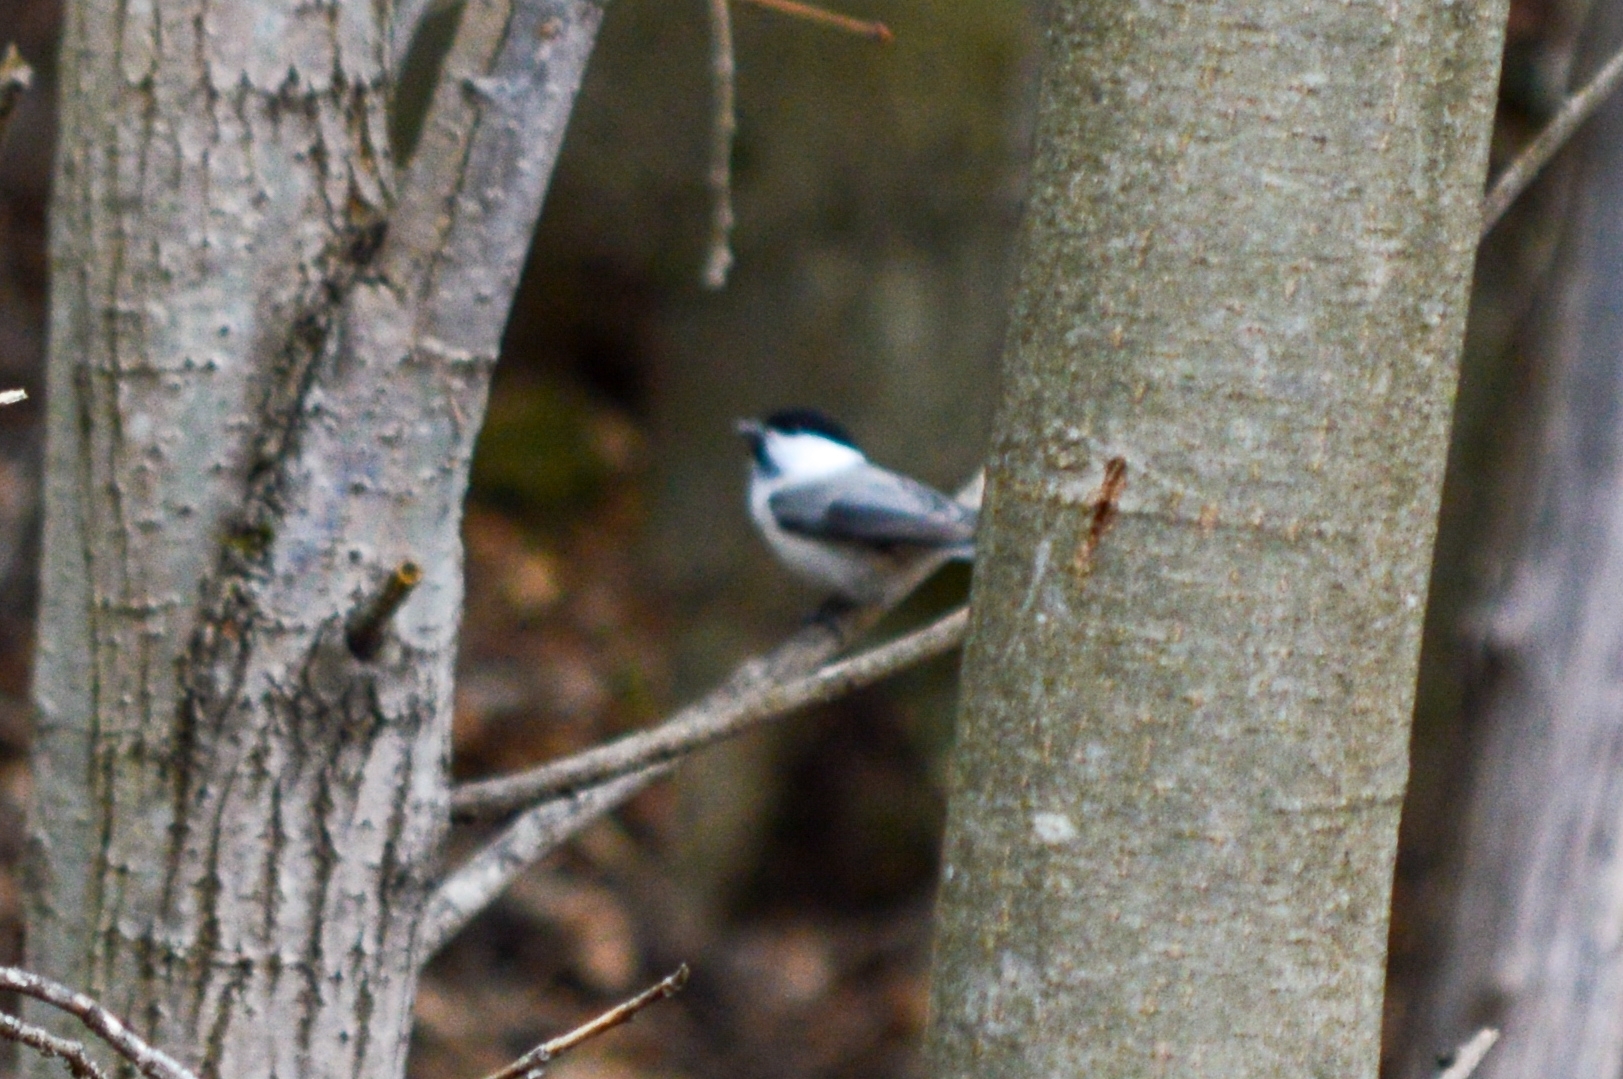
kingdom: Animalia
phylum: Chordata
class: Aves
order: Passeriformes
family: Paridae
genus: Poecile
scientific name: Poecile montanus
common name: Willow tit
